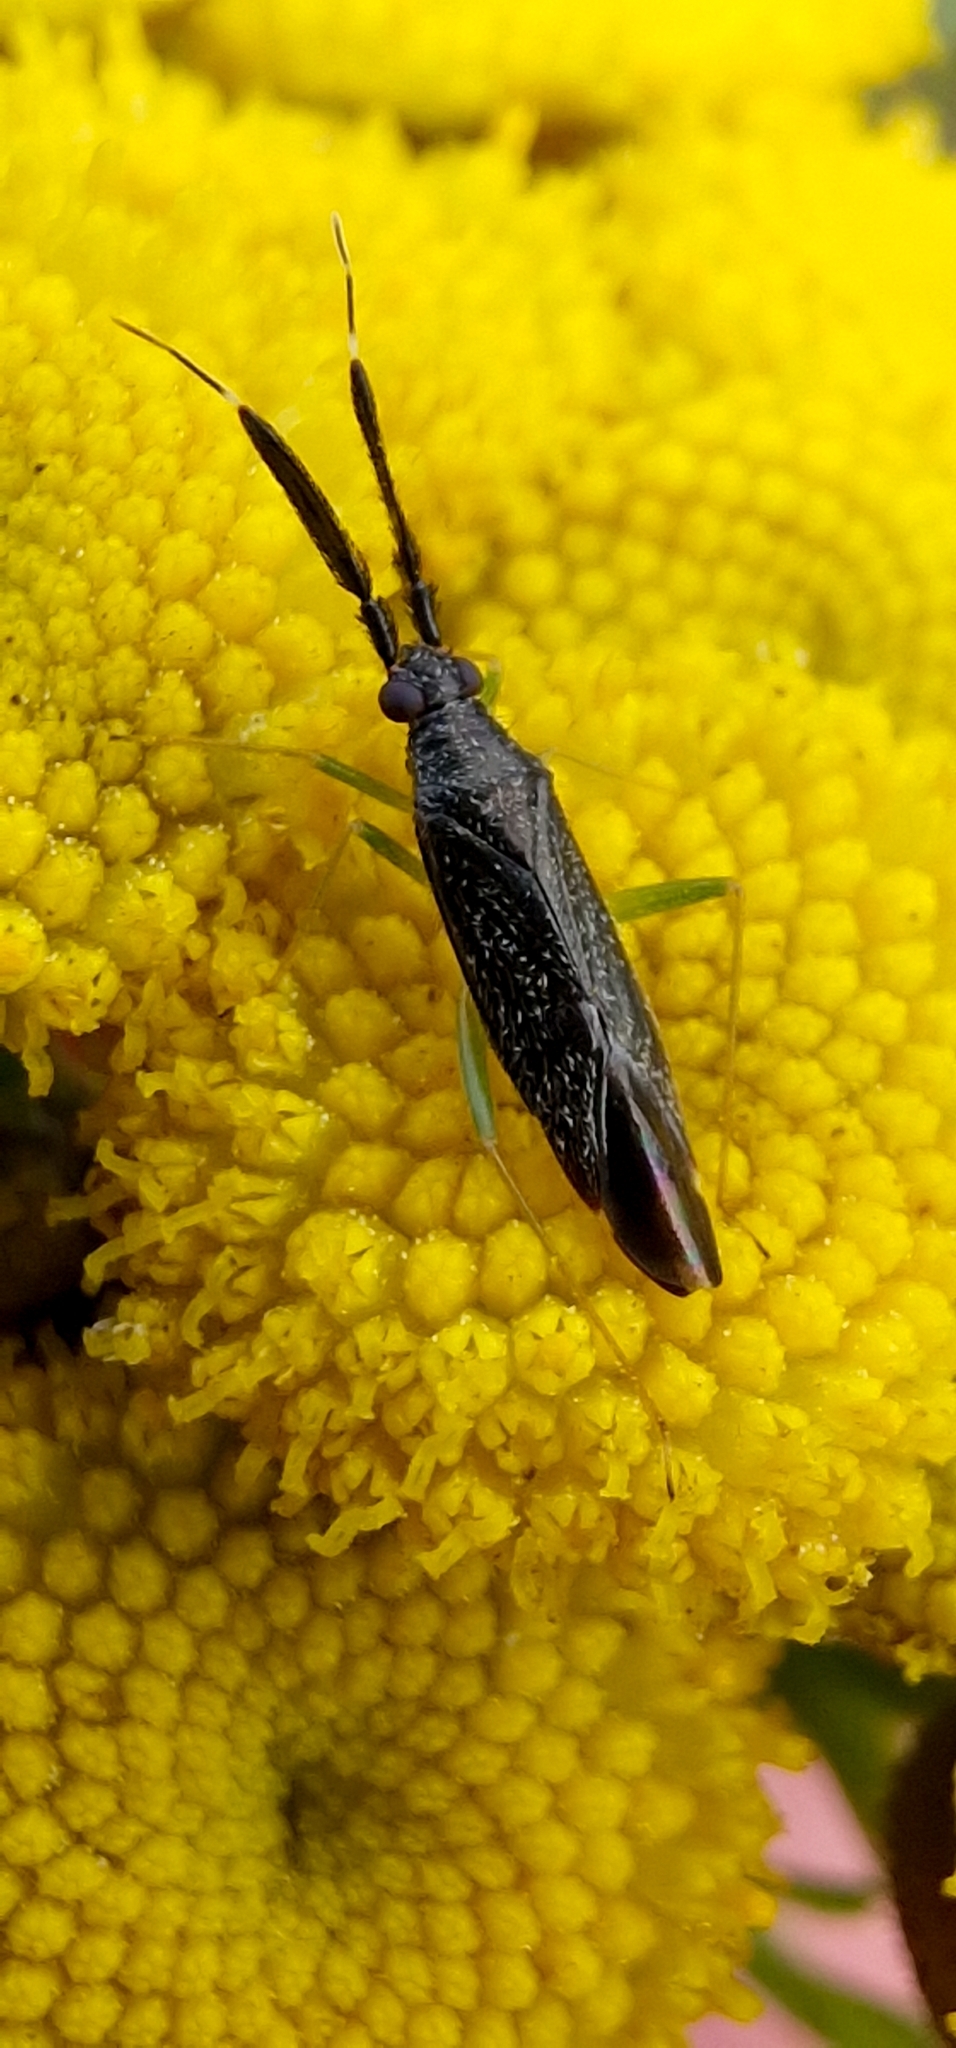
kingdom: Animalia
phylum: Arthropoda
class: Insecta
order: Hemiptera
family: Miridae
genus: Heterotoma
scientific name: Heterotoma planicornis
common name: Plant bug
